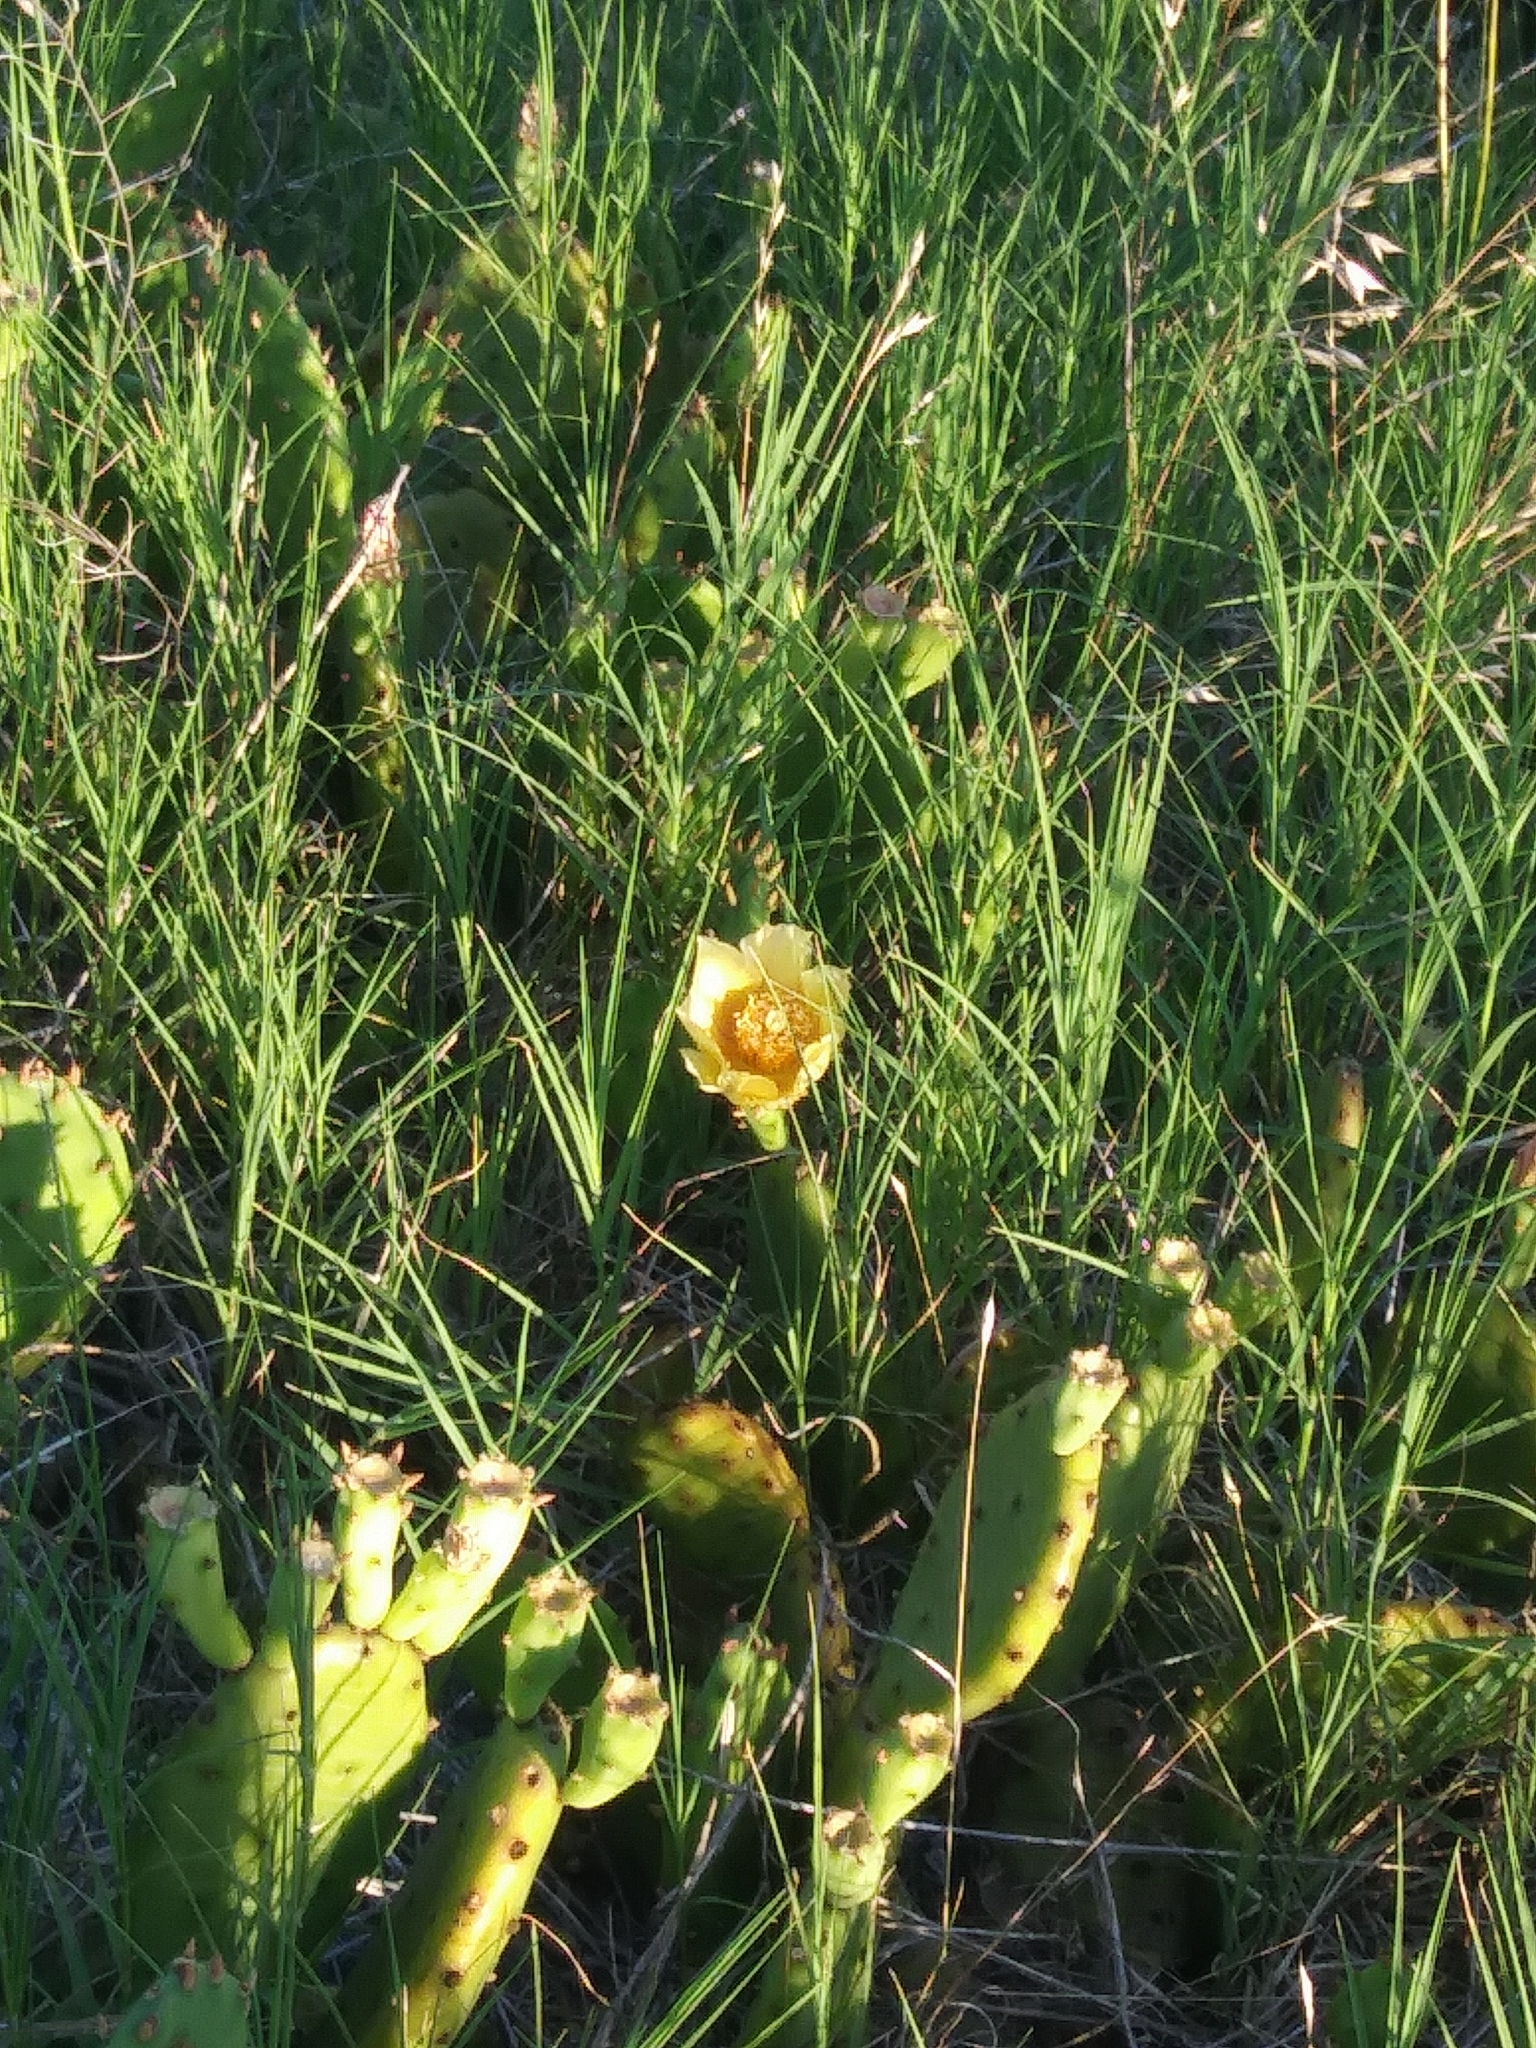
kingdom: Plantae
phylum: Tracheophyta
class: Magnoliopsida
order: Caryophyllales
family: Cactaceae
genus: Opuntia
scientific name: Opuntia humifusa
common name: Eastern prickly-pear
